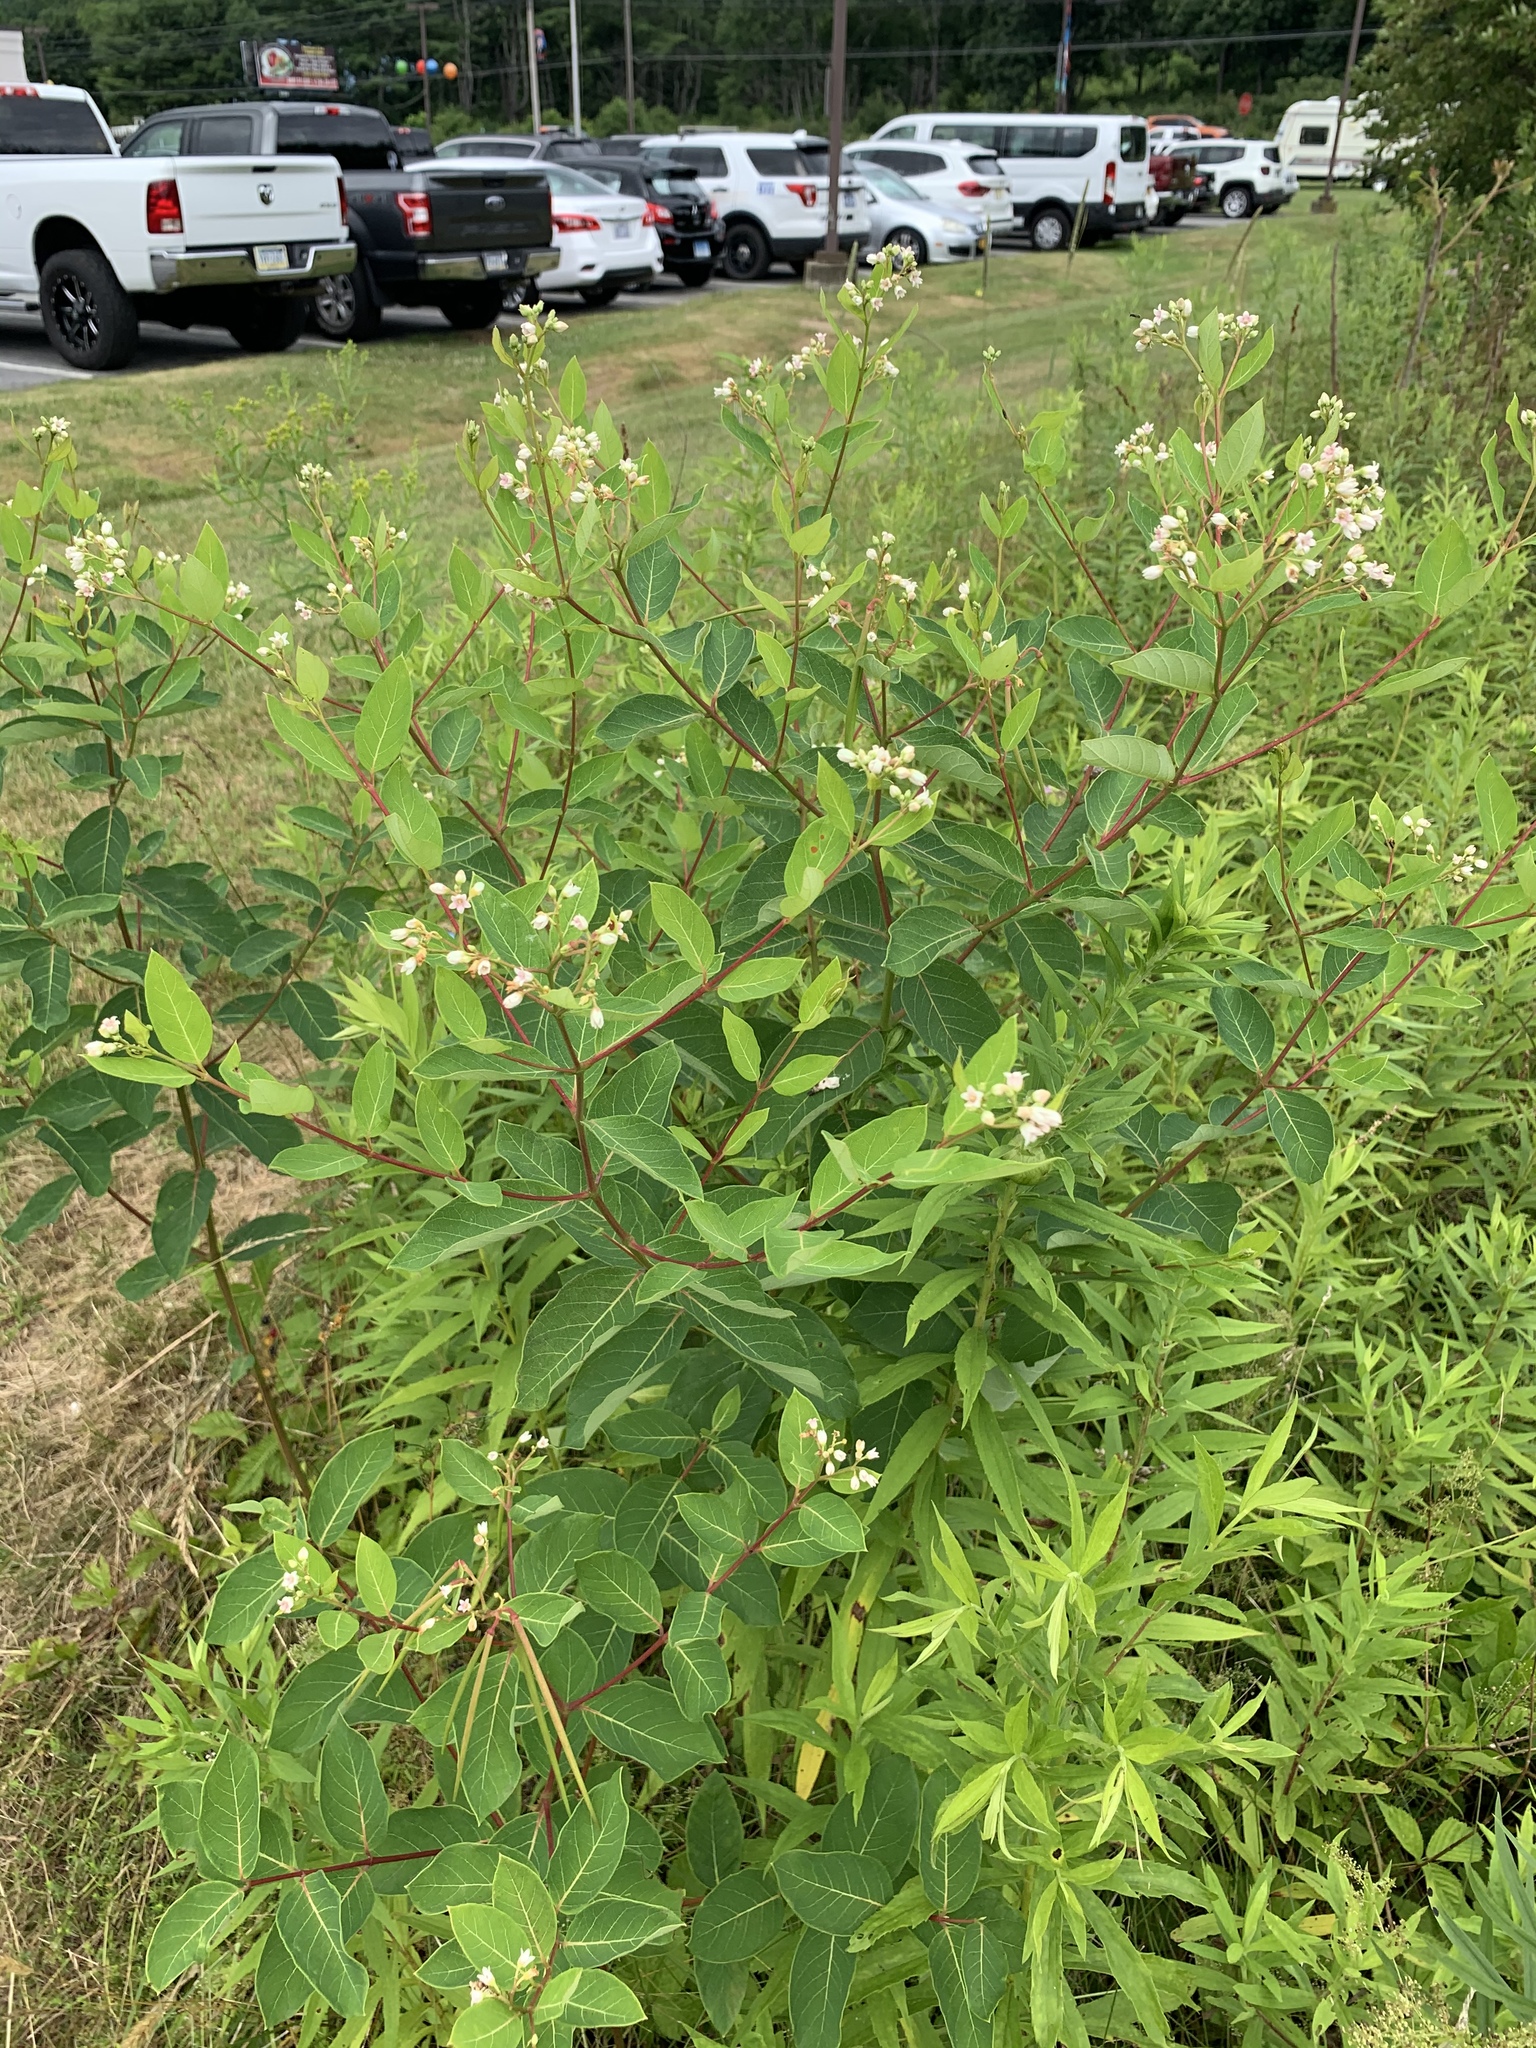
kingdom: Plantae
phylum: Tracheophyta
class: Magnoliopsida
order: Gentianales
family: Apocynaceae
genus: Apocynum
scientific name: Apocynum androsaemifolium
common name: Spreading dogbane
